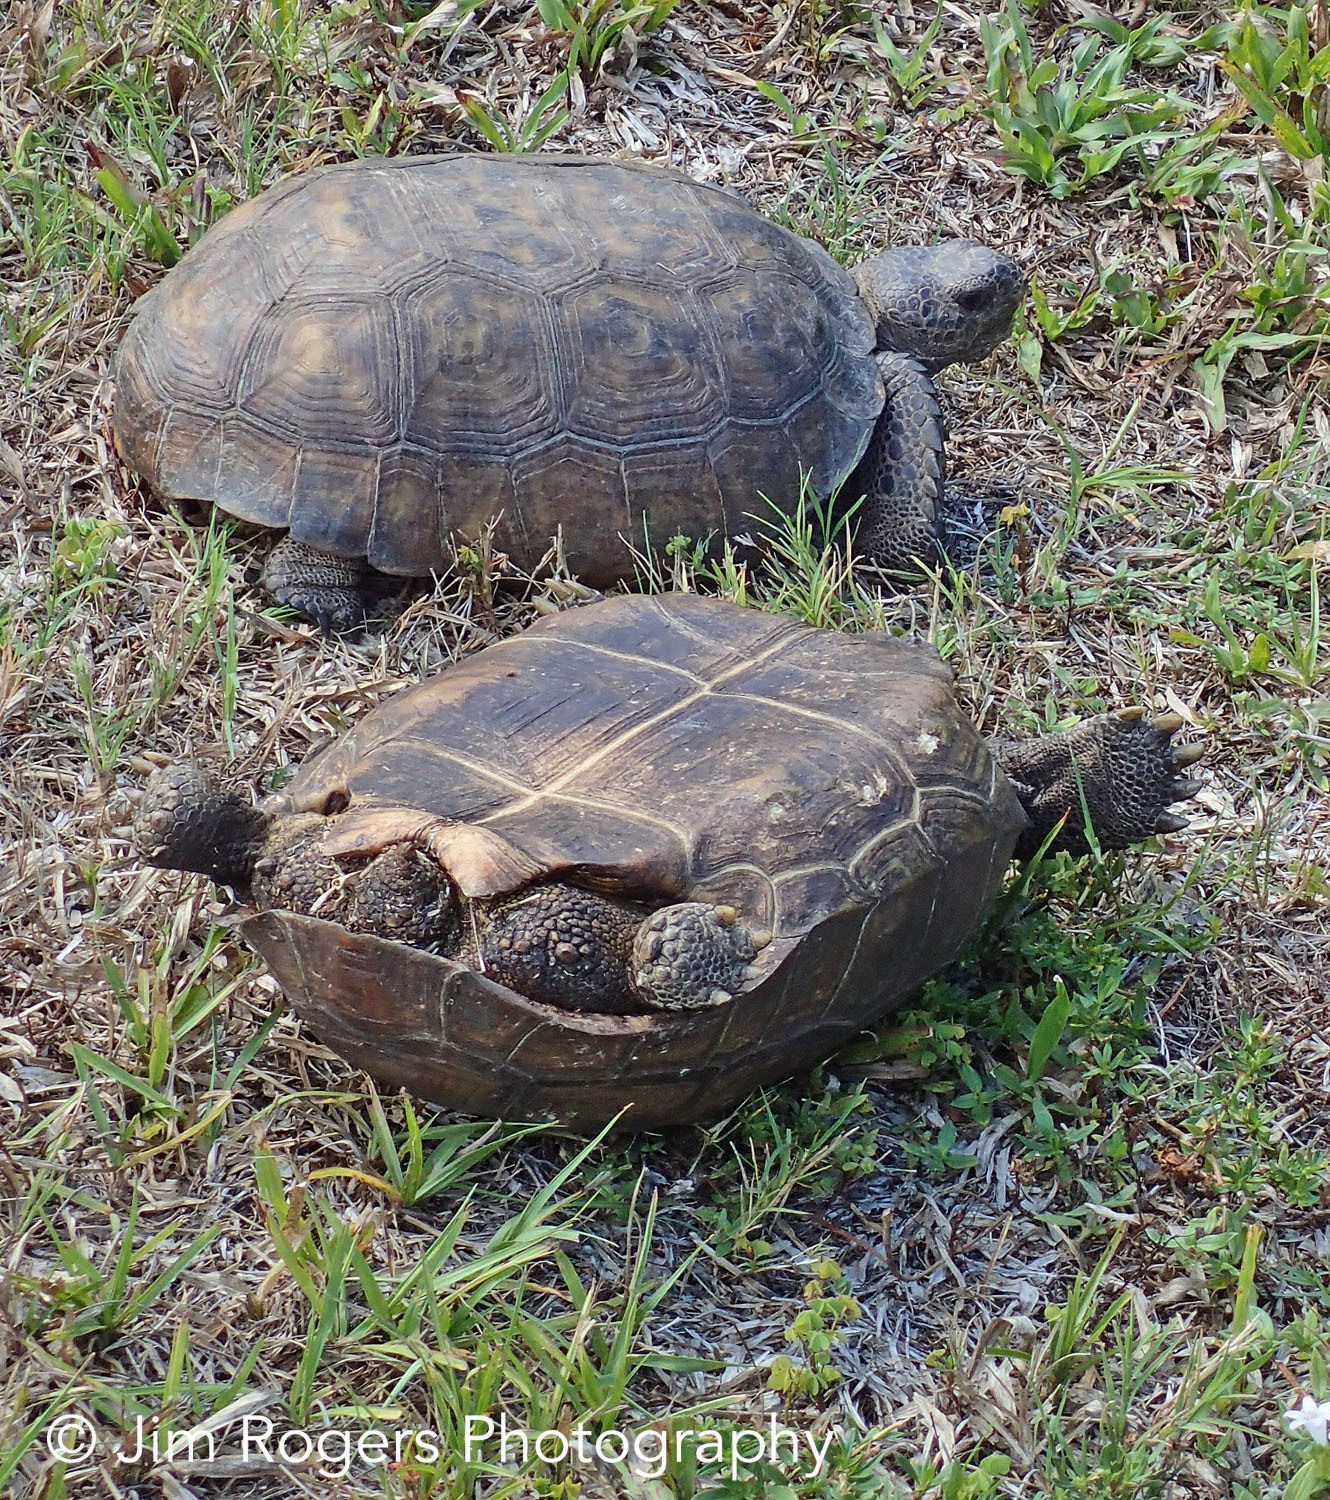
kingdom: Animalia
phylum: Chordata
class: Testudines
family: Testudinidae
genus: Gopherus
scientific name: Gopherus polyphemus
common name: Florida gopher tortoise
